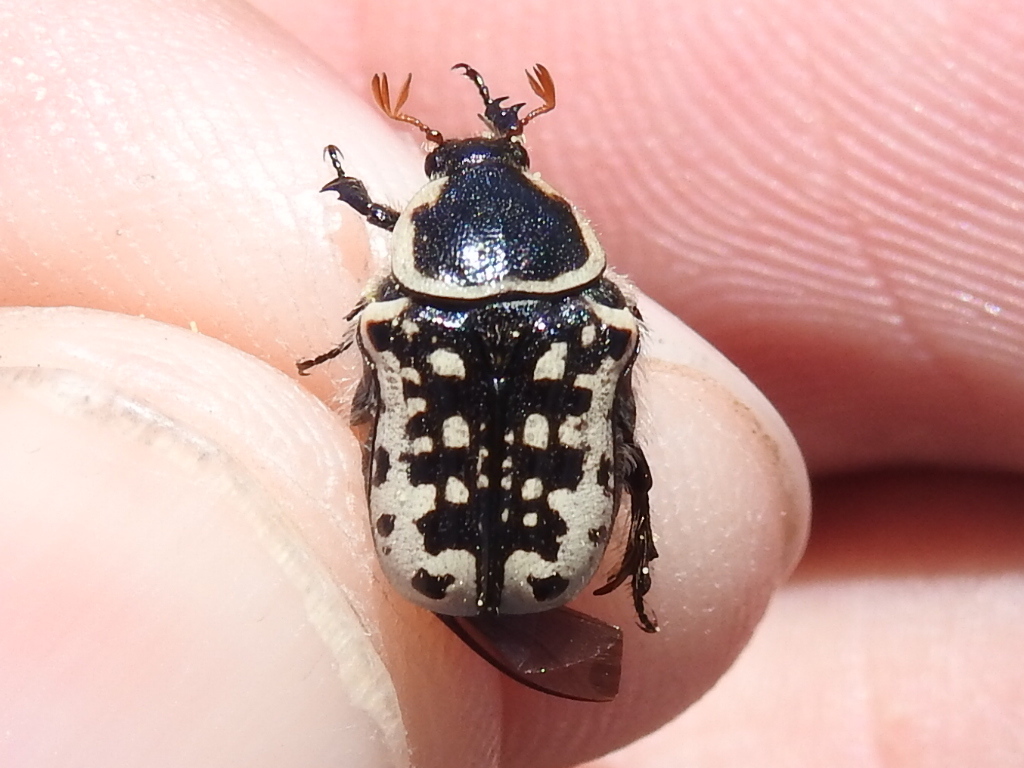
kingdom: Animalia
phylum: Arthropoda
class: Insecta
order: Coleoptera
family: Scarabaeidae
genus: Euphoria
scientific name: Euphoria kernii
